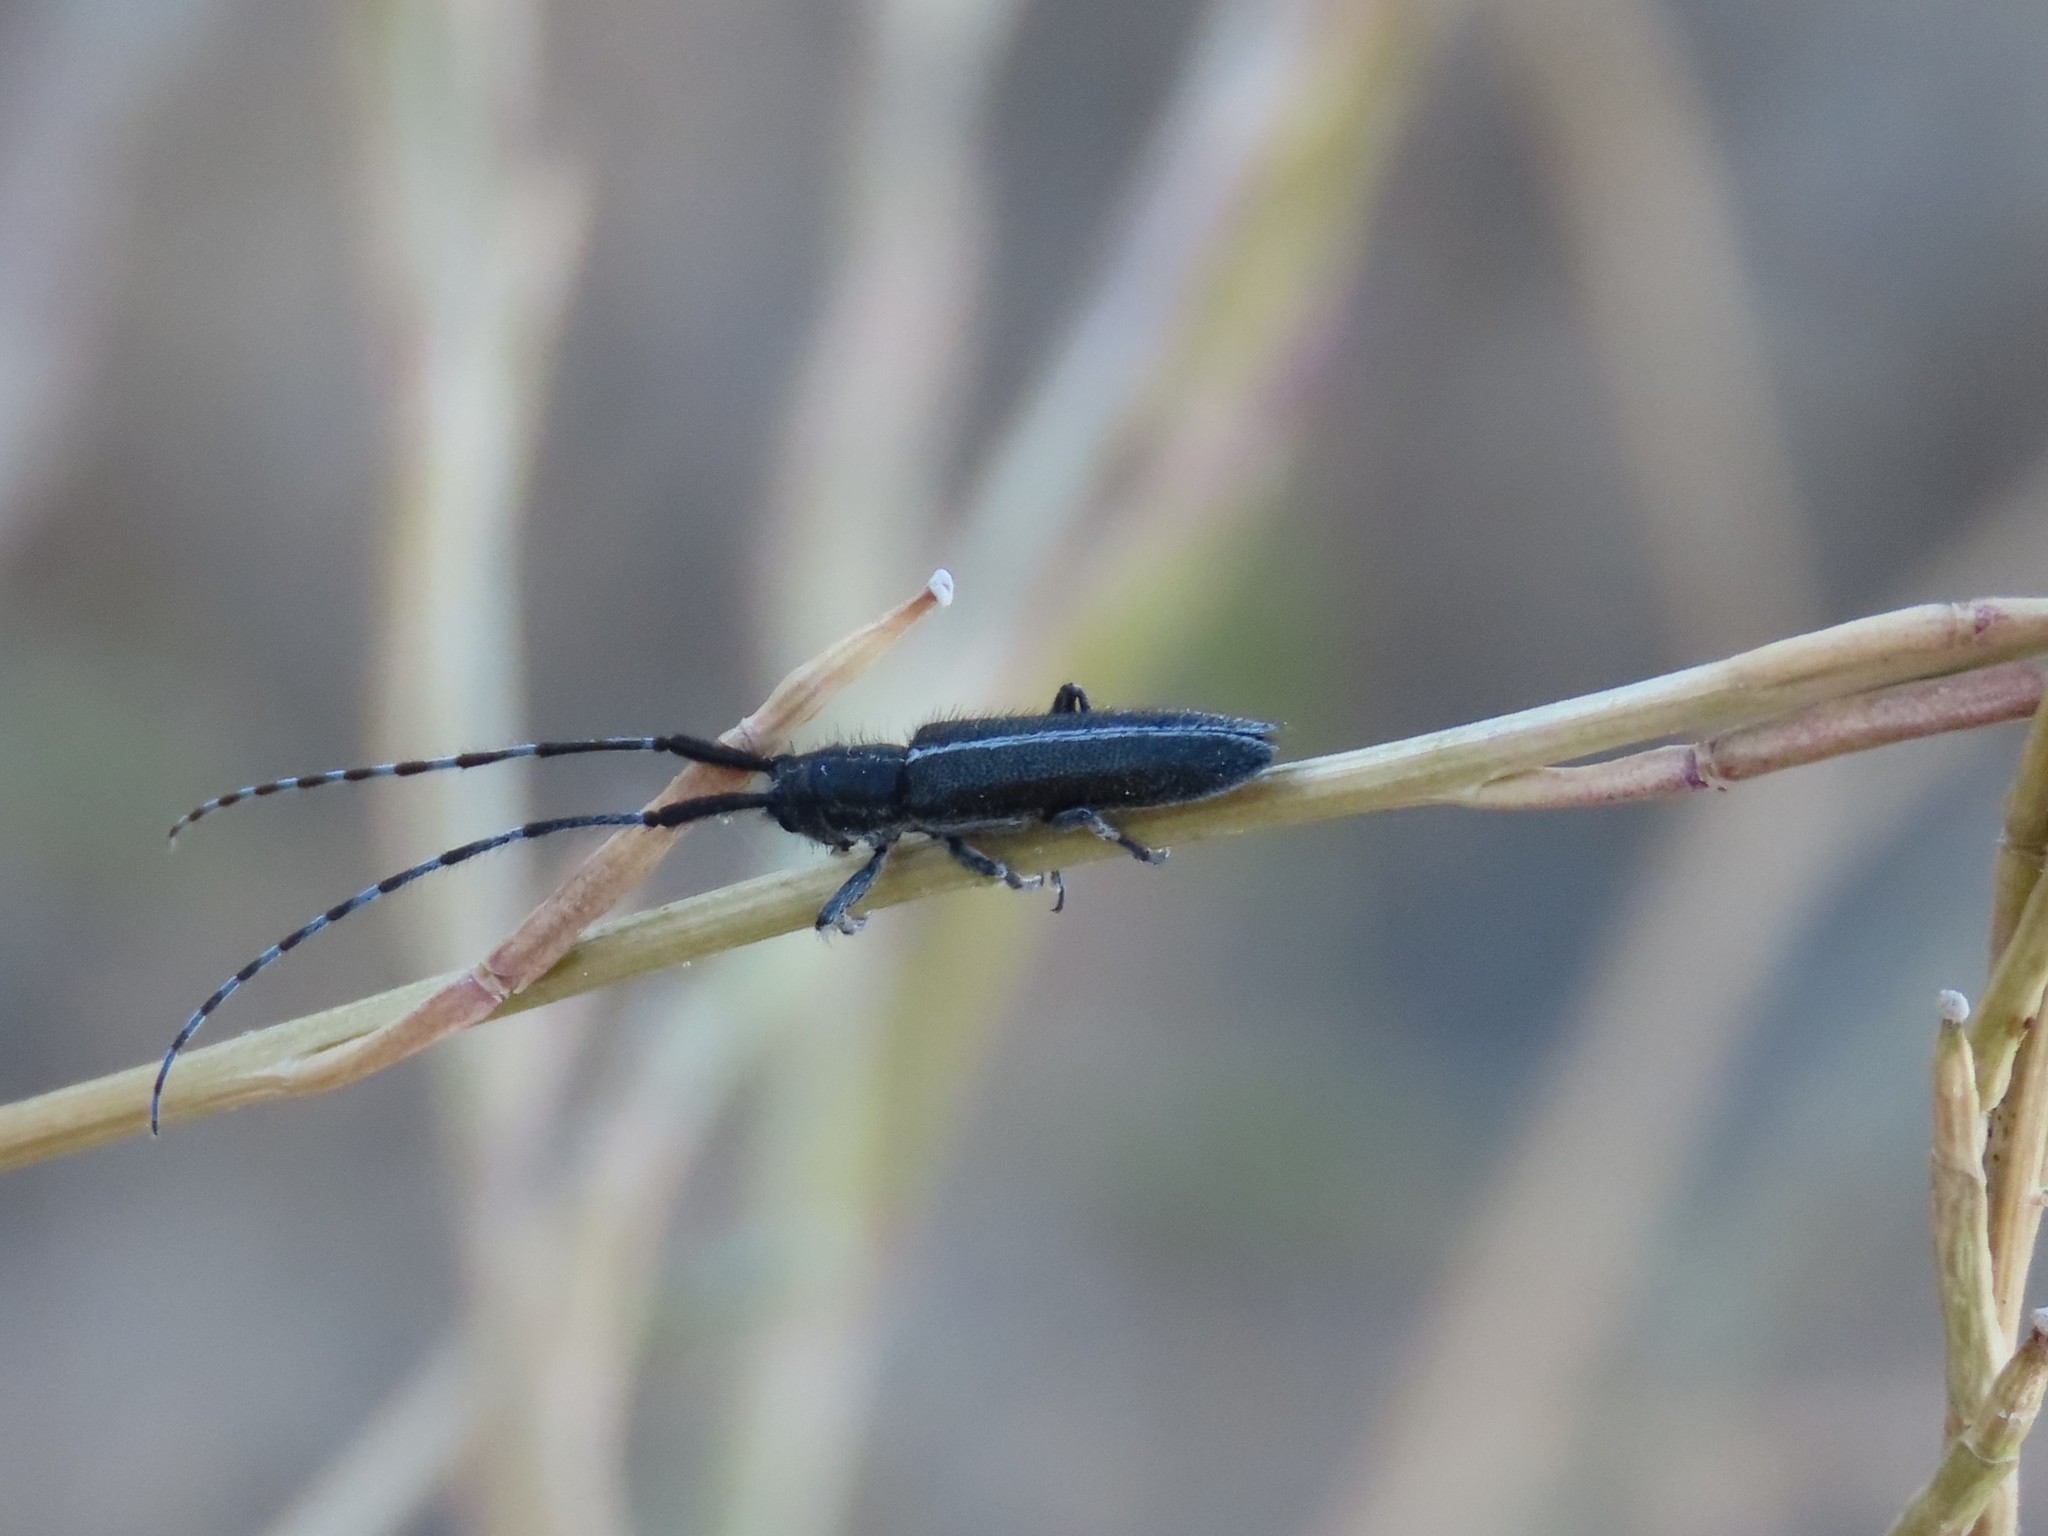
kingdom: Animalia
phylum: Arthropoda
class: Insecta
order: Coleoptera
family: Cerambycidae
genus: Agapanthia
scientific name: Agapanthia cardui
